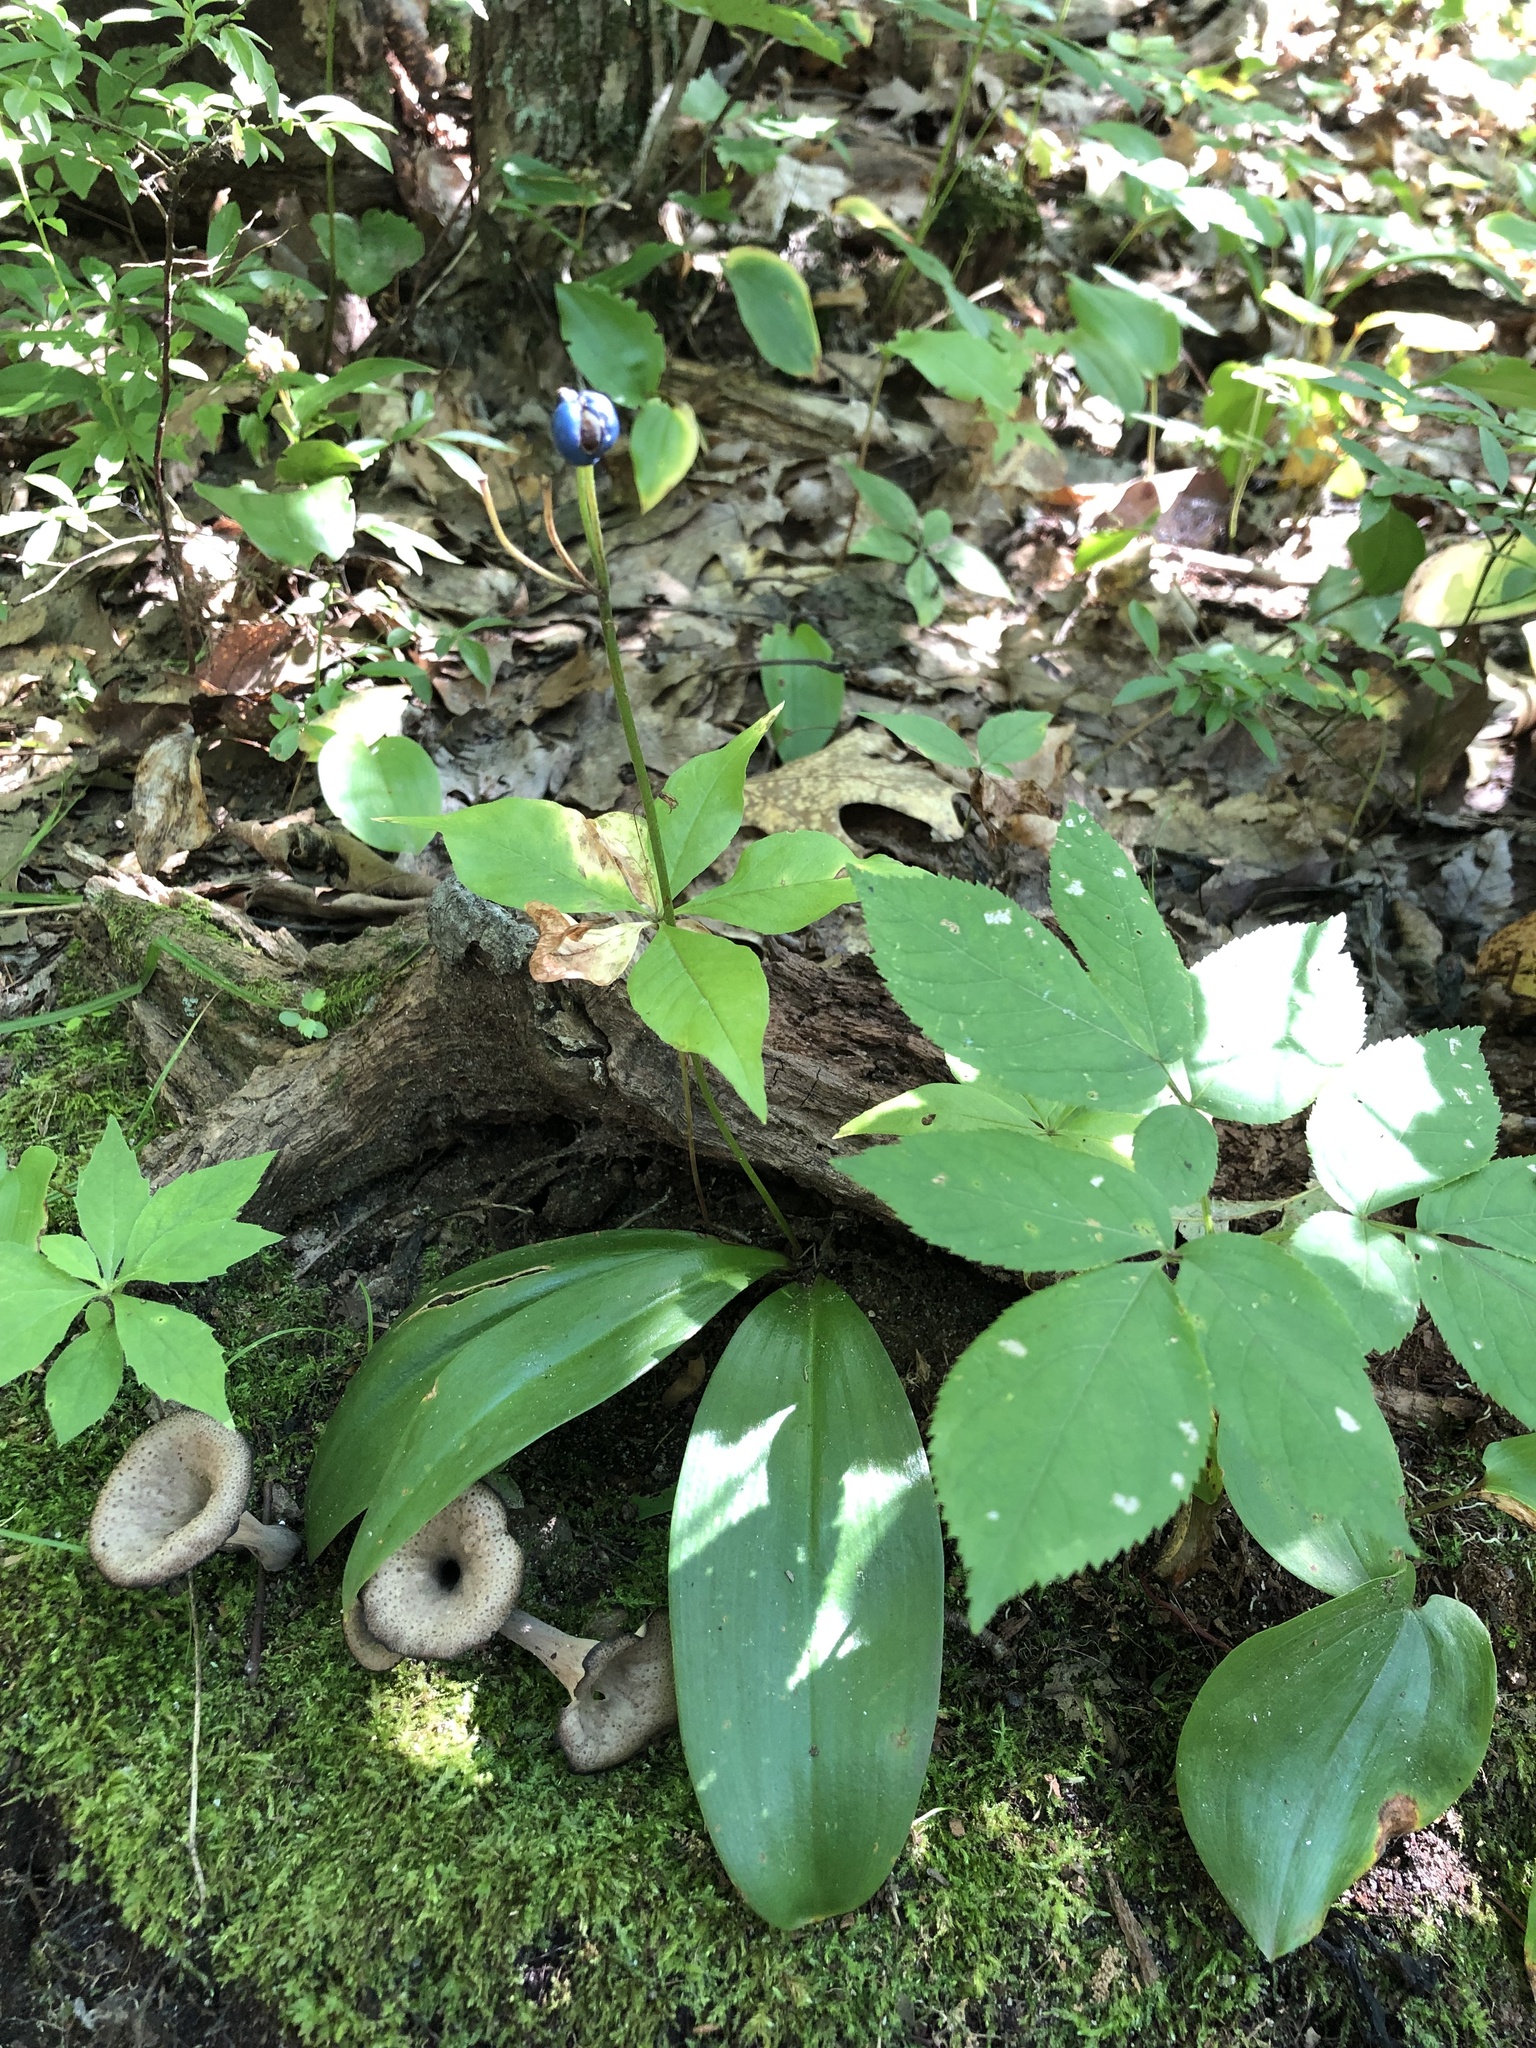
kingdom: Plantae
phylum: Tracheophyta
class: Liliopsida
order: Liliales
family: Liliaceae
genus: Clintonia
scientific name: Clintonia borealis
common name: Yellow clintonia
